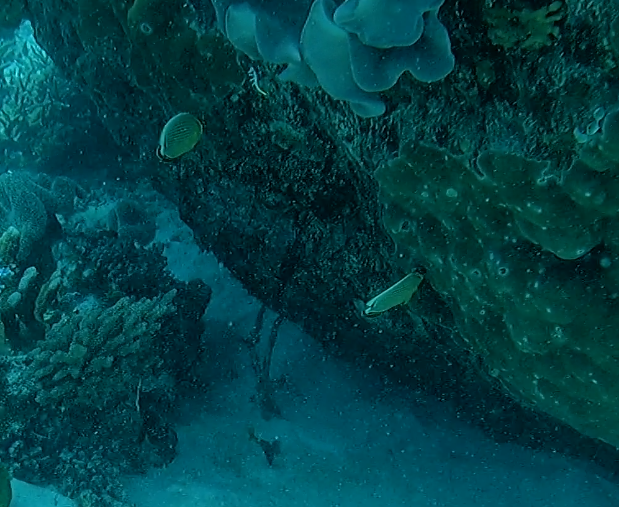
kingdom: Animalia
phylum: Chordata
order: Perciformes
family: Chaetodontidae
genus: Chaetodon
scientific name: Chaetodon lunulatus
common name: Redfin butterflyfish
